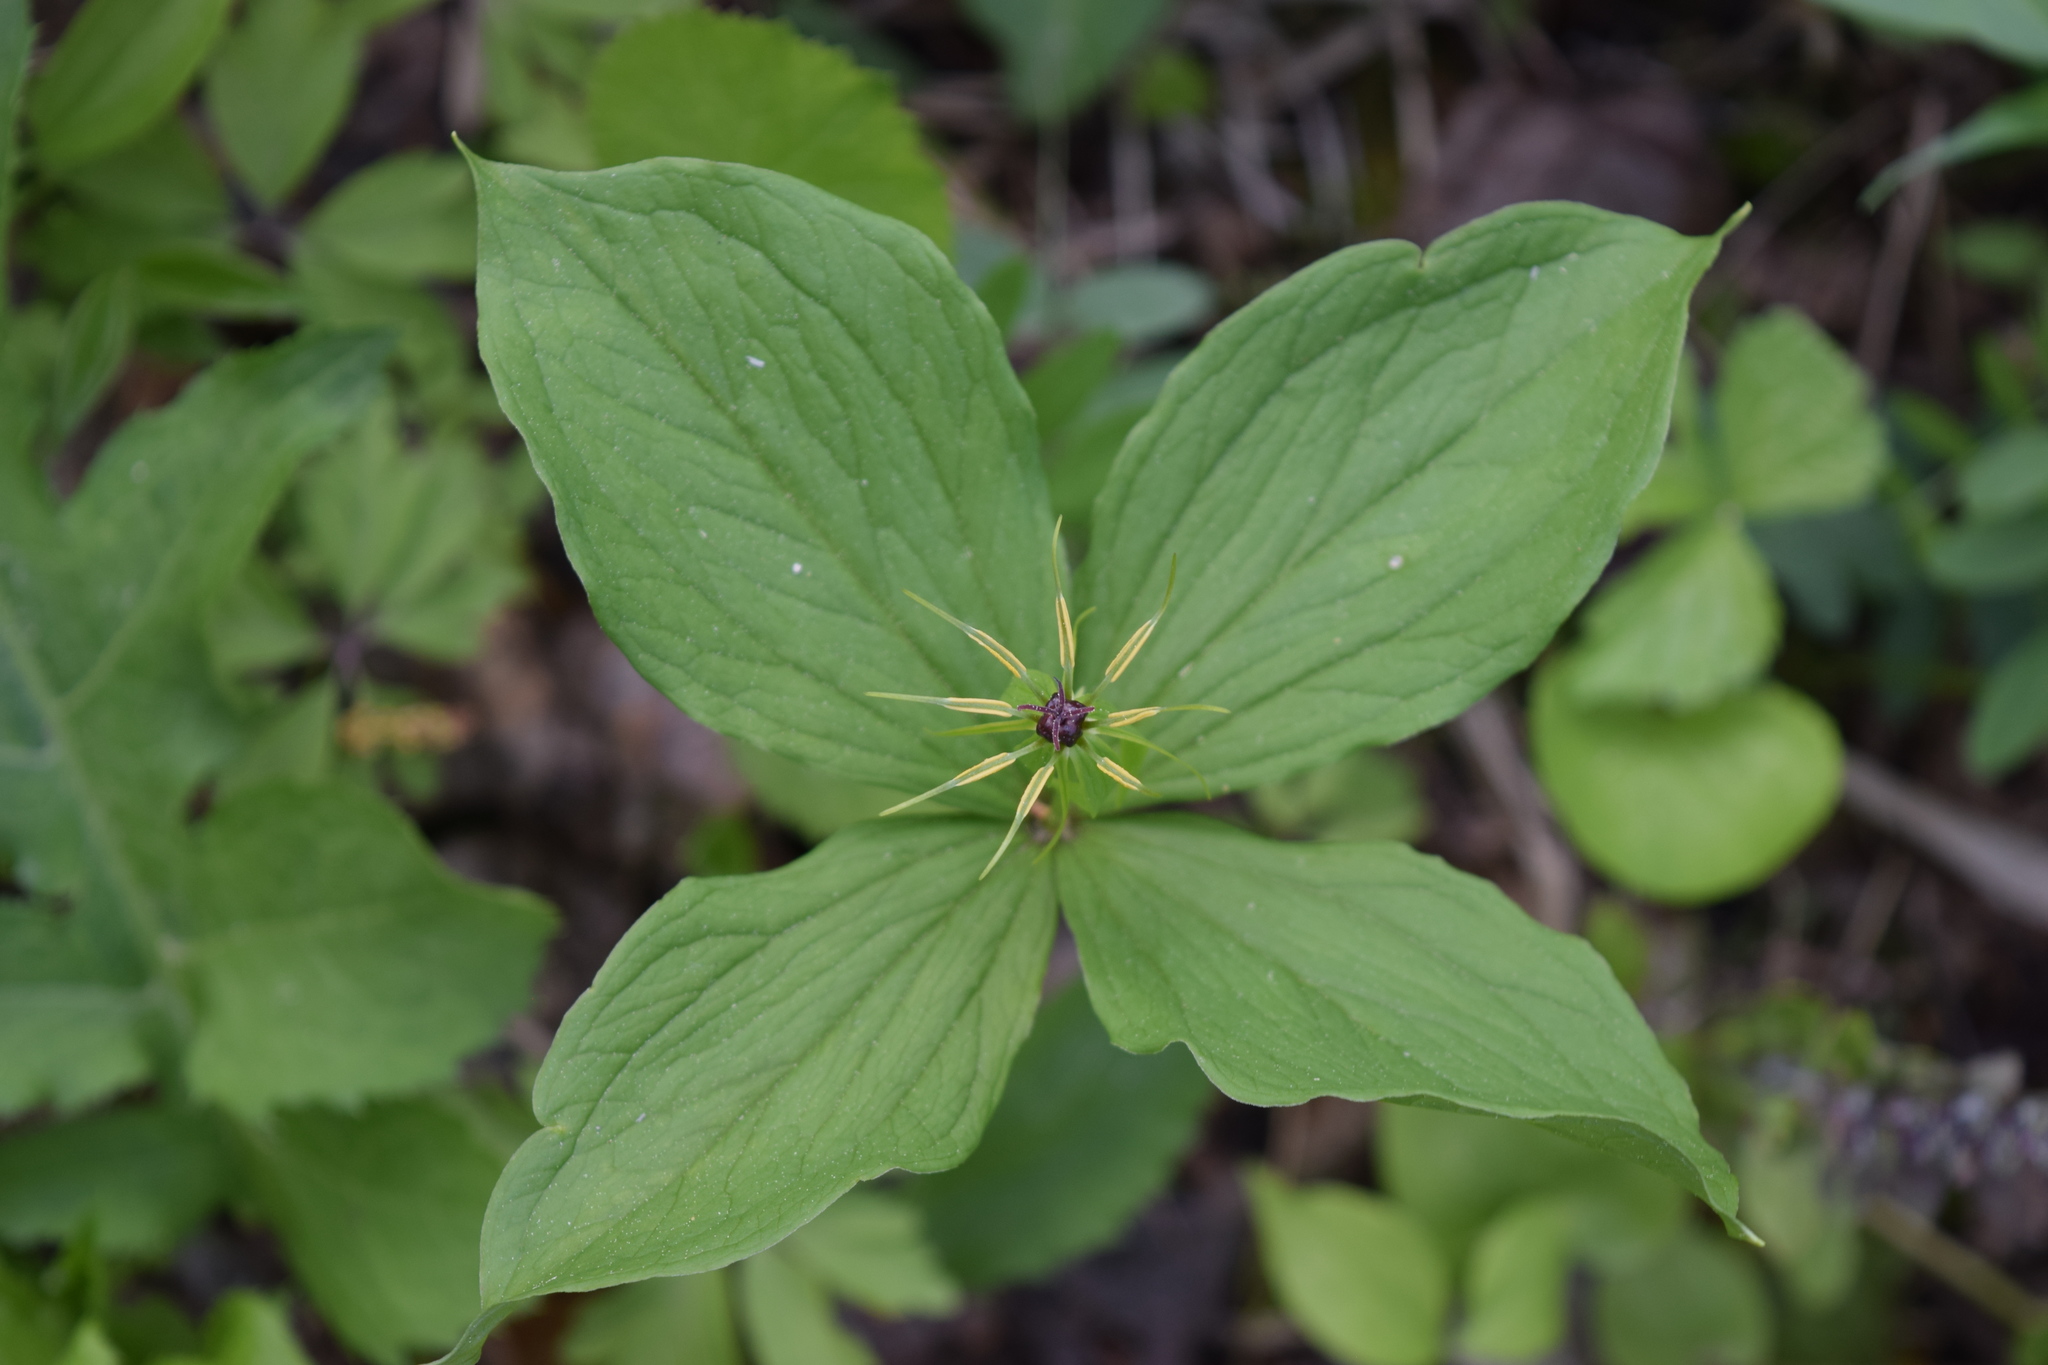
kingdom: Plantae
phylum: Tracheophyta
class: Liliopsida
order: Liliales
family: Melanthiaceae
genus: Paris
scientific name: Paris quadrifolia
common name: Herb-paris
